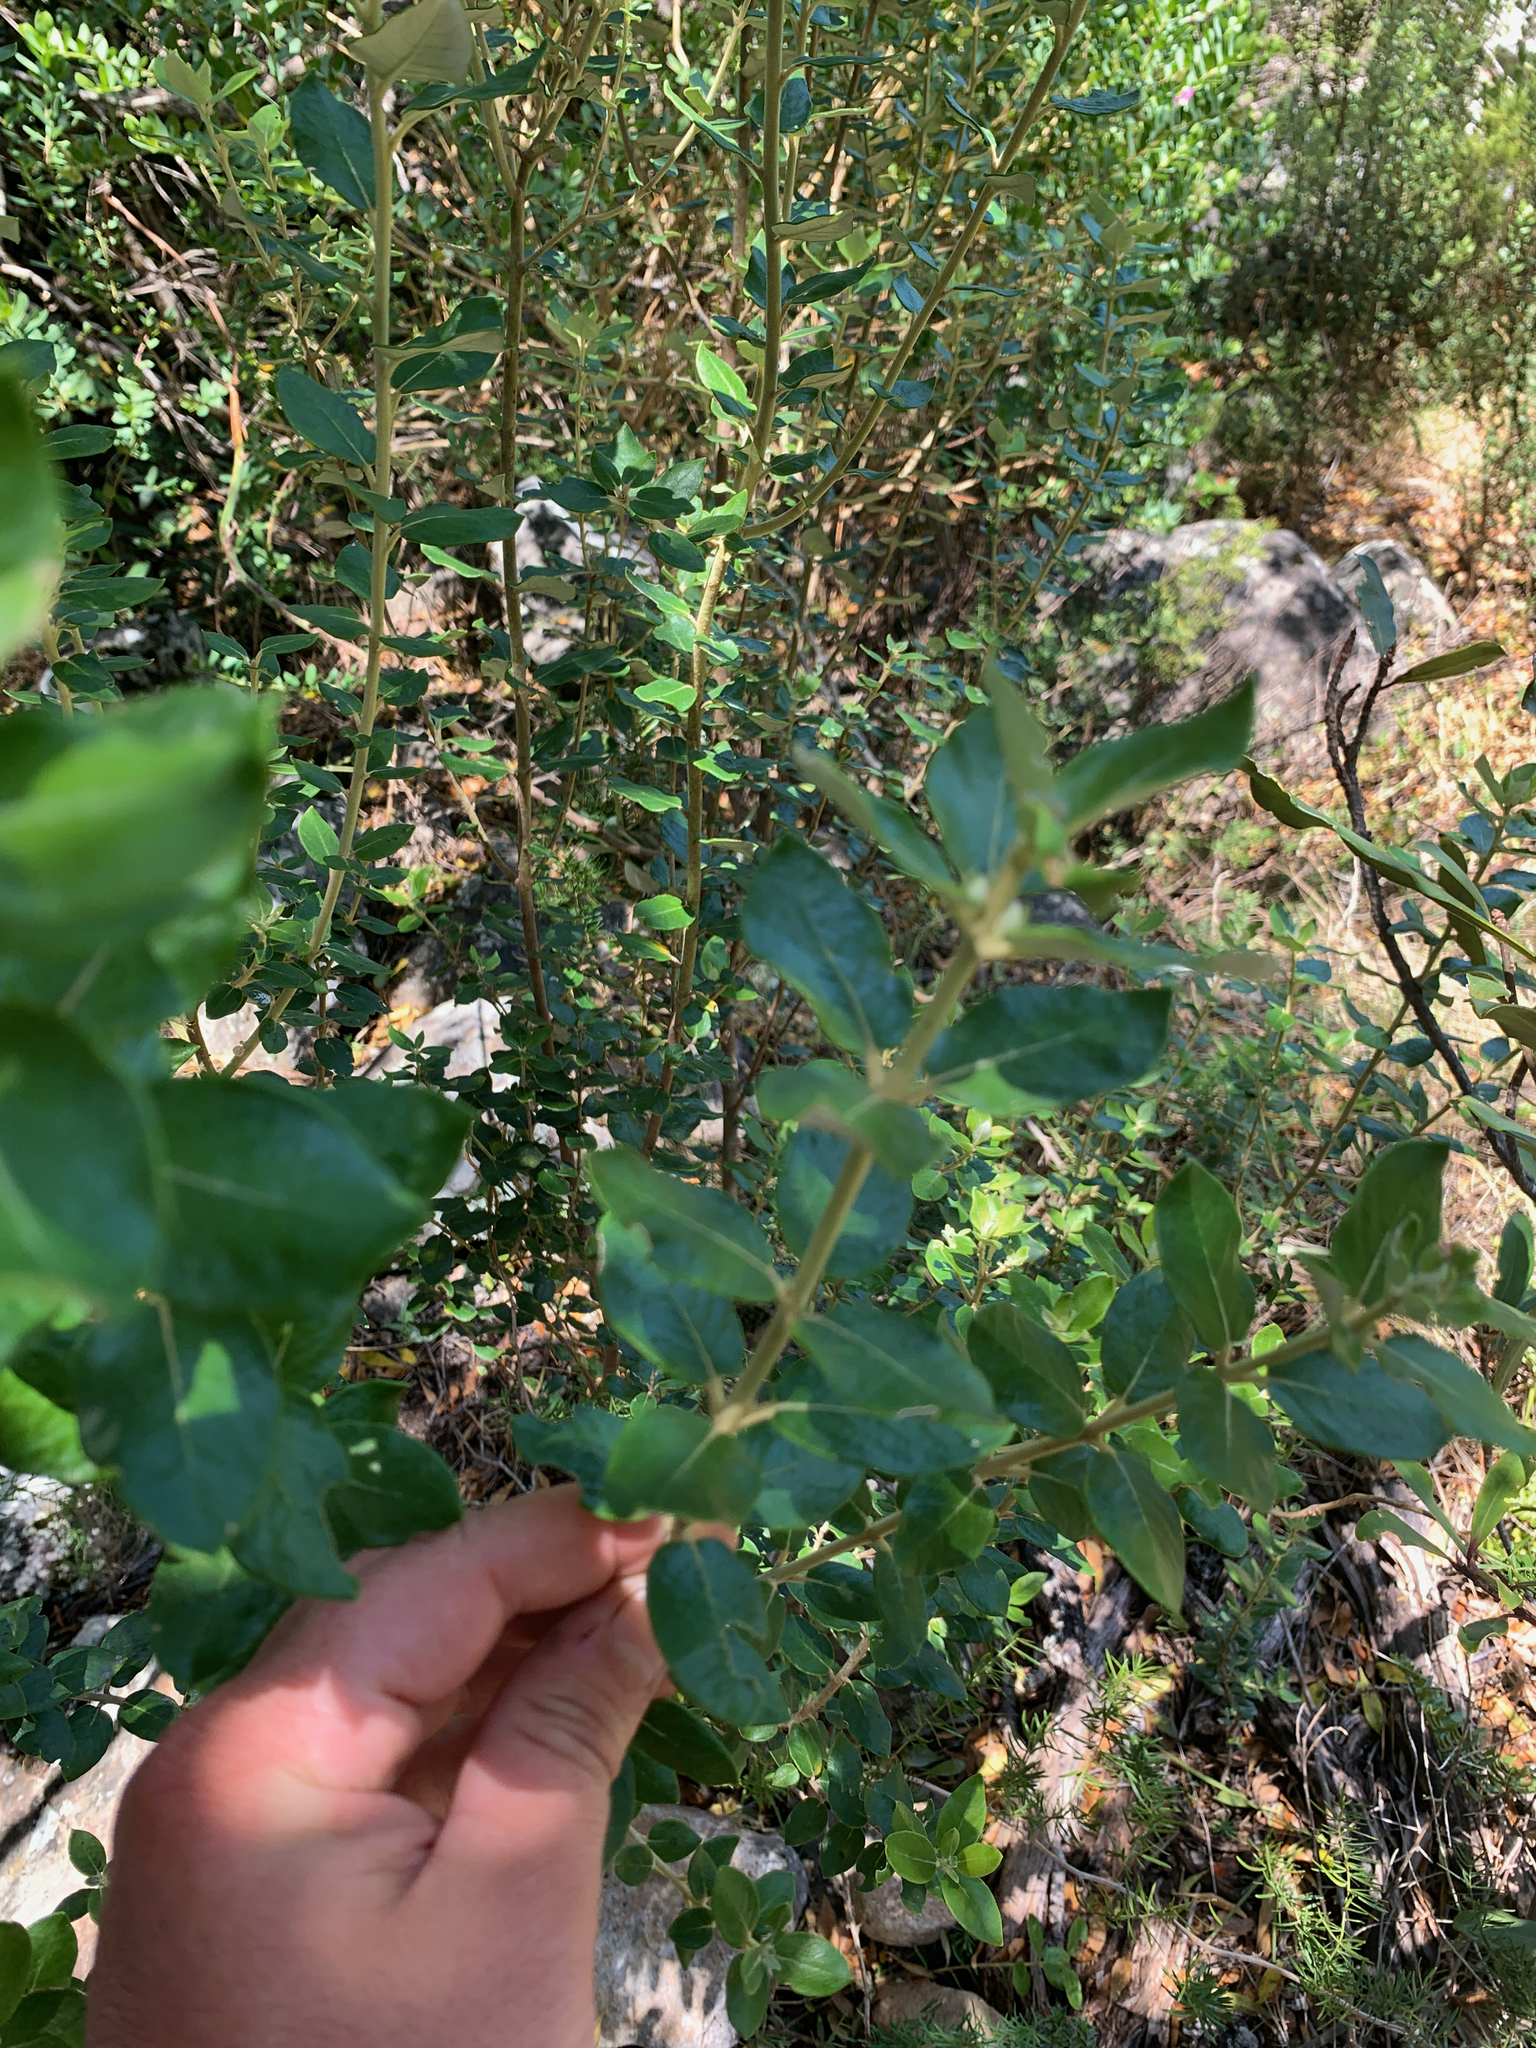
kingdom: Plantae
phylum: Tracheophyta
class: Magnoliopsida
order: Rosales
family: Rhamnaceae
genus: Phylica
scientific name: Phylica buxifolia
